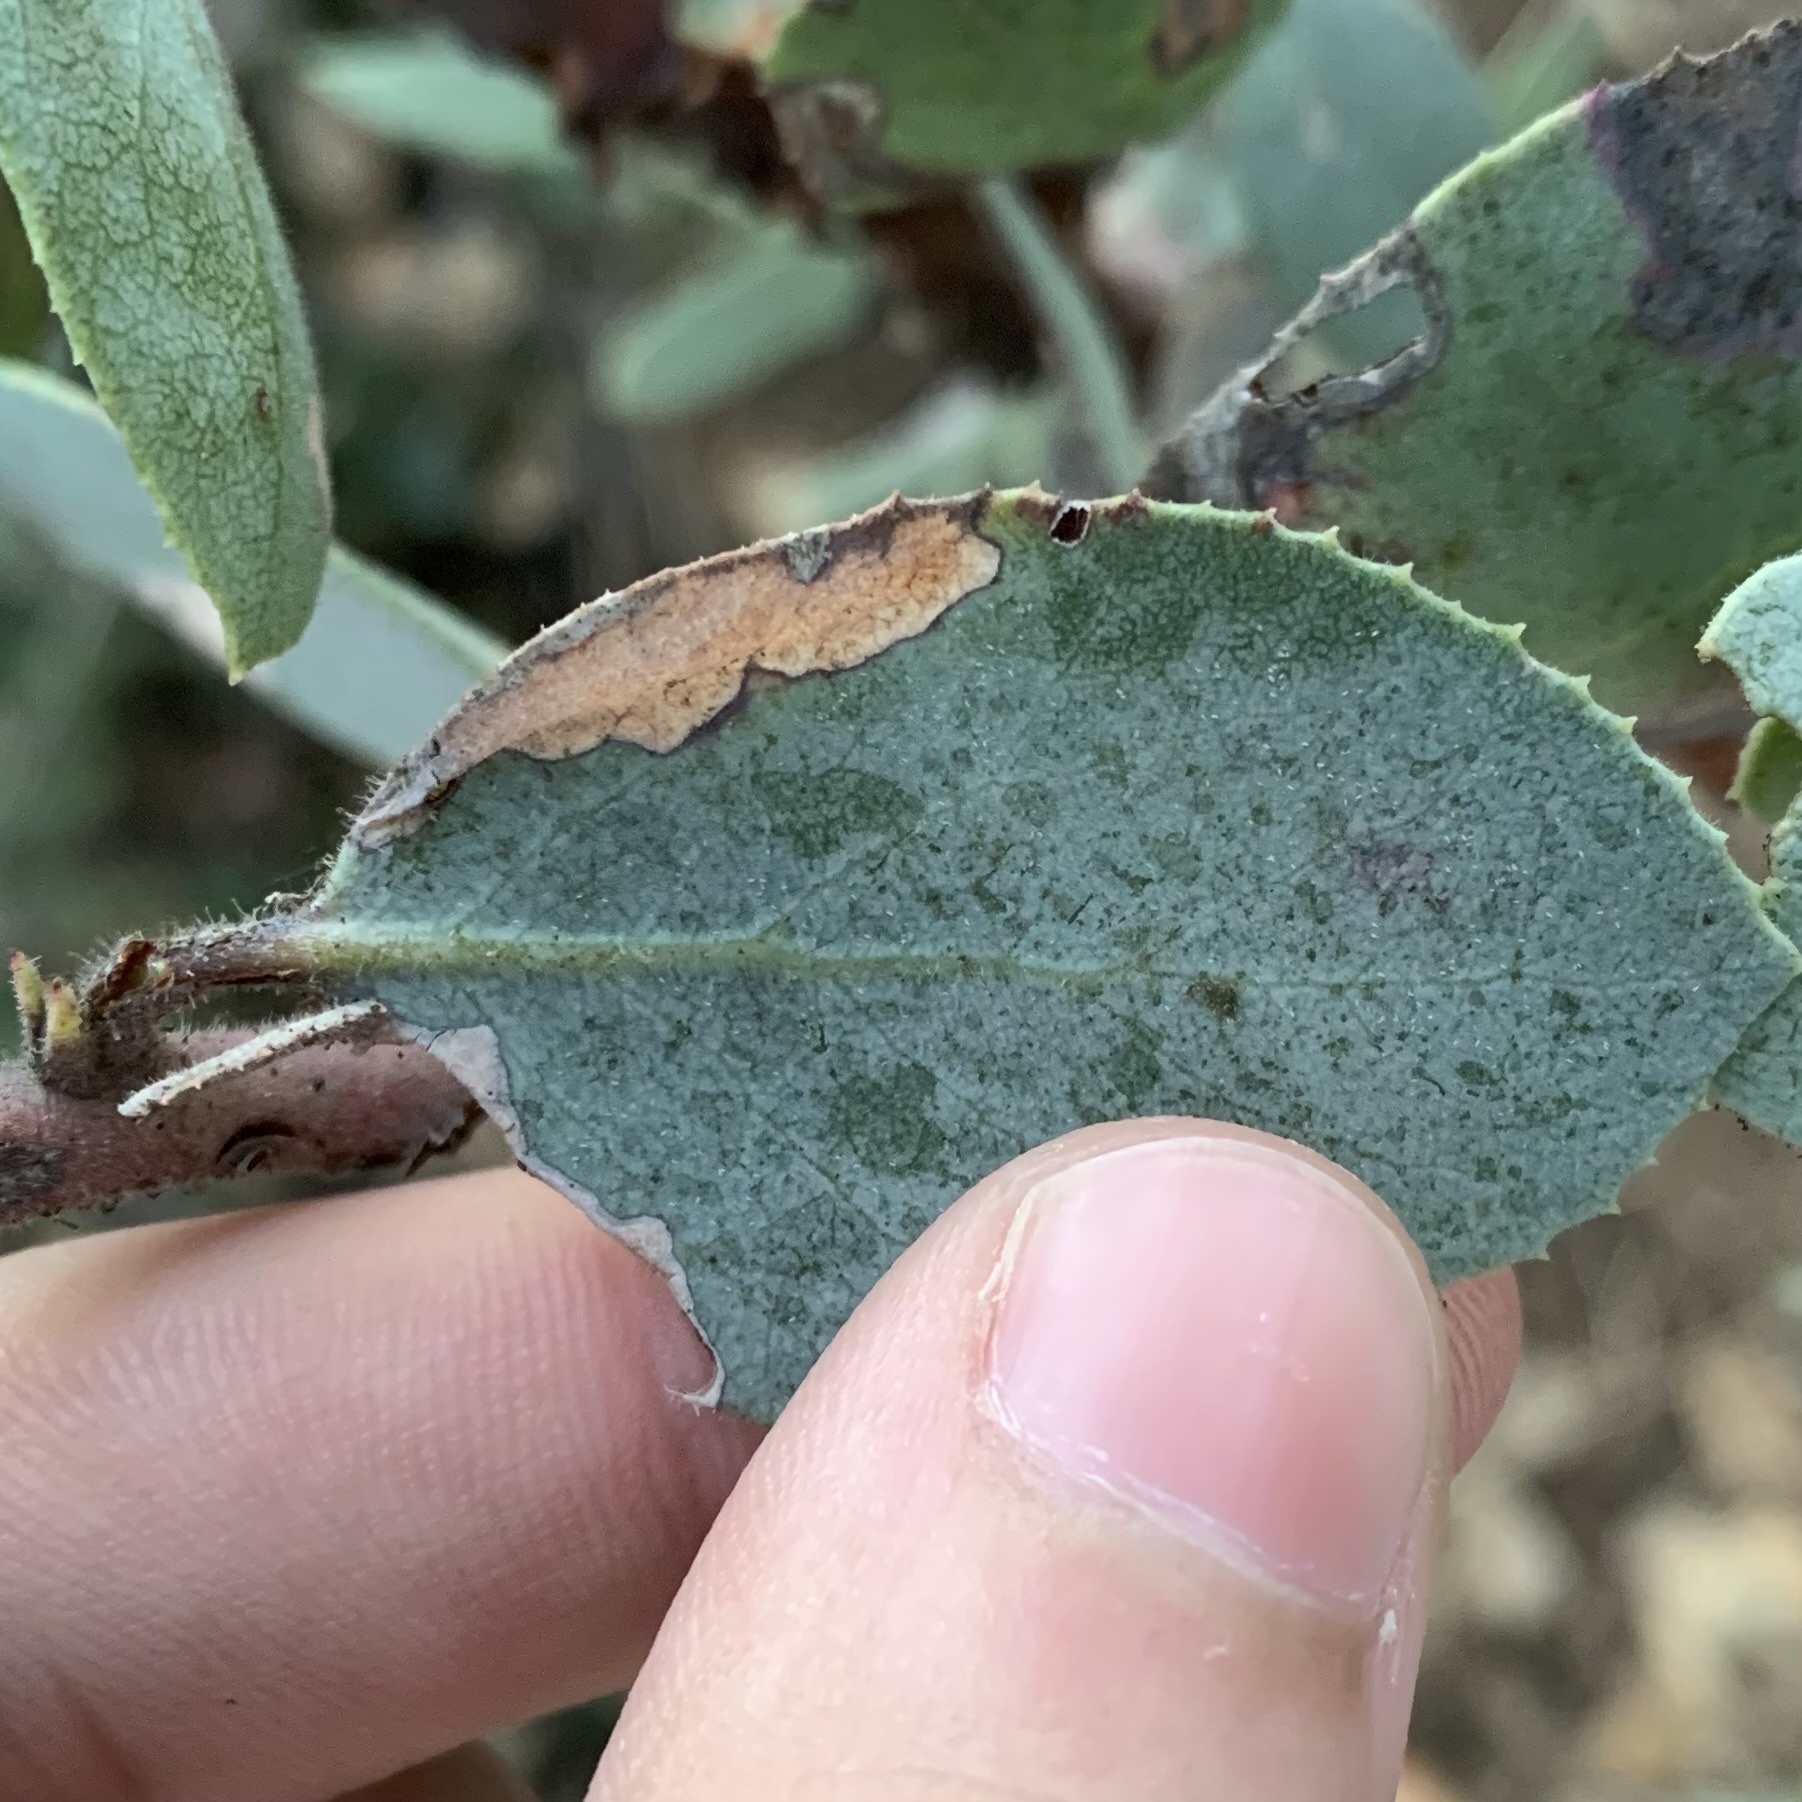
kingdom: Animalia
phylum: Arthropoda
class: Insecta
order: Lepidoptera
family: Coleophoridae
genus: Coleophora
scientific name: Coleophora glaucella
